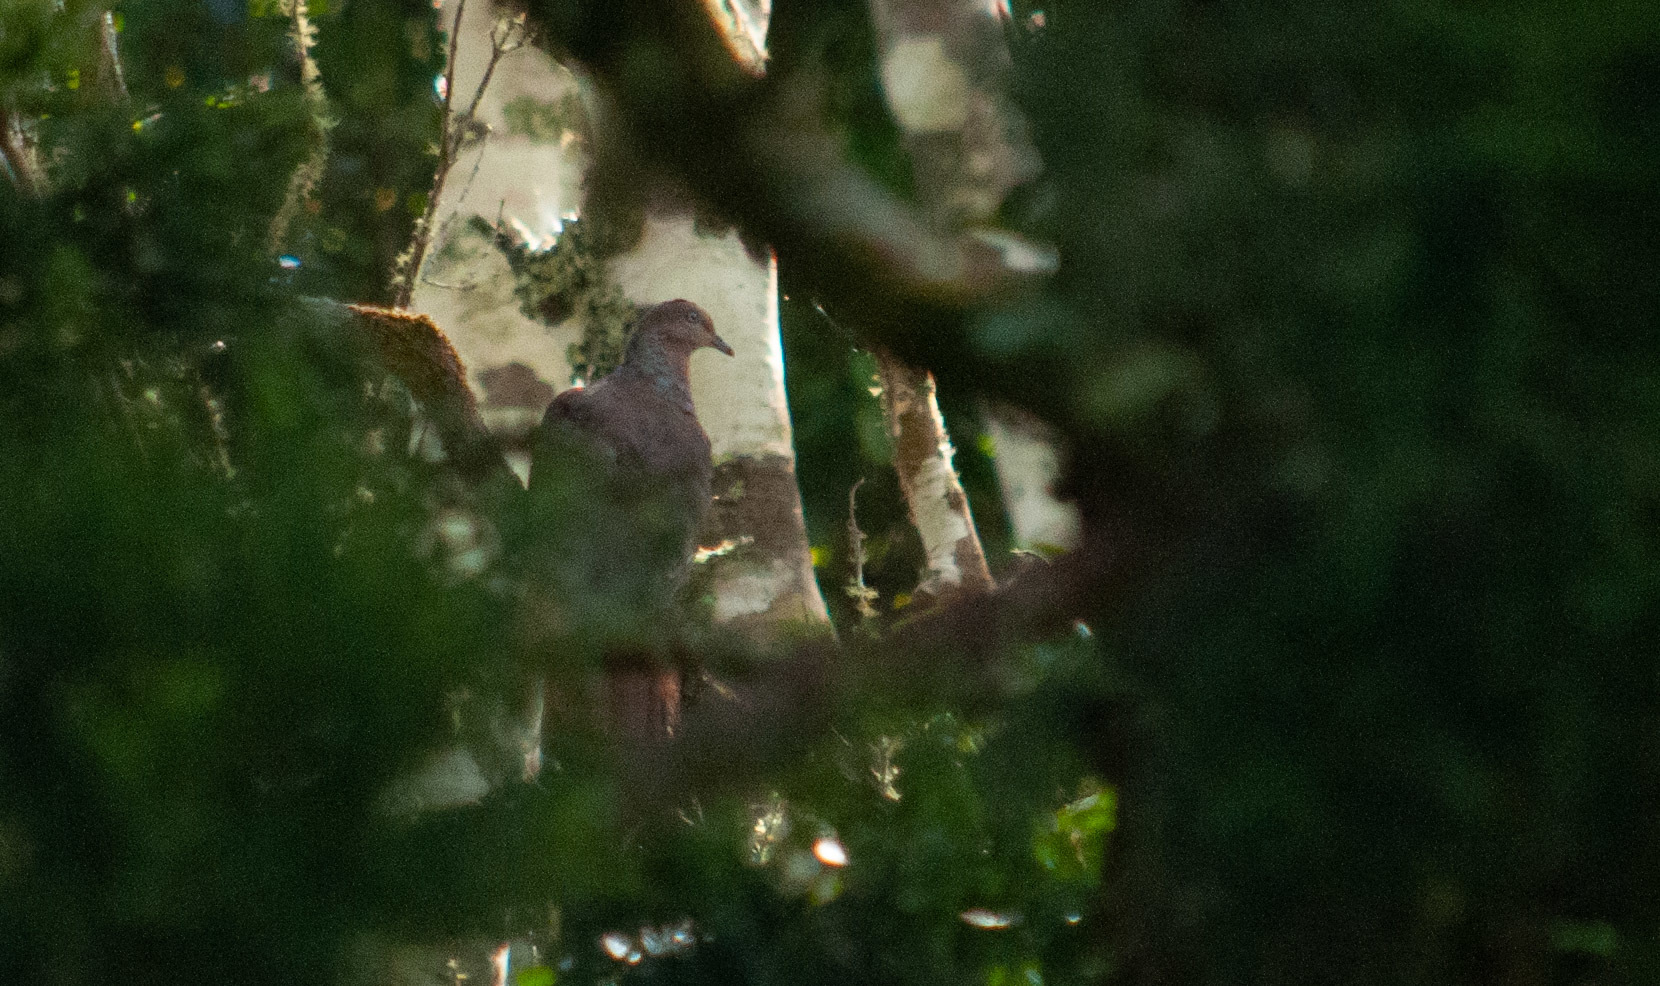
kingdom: Animalia
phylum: Chordata
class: Aves
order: Columbiformes
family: Columbidae
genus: Macropygia
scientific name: Macropygia phasianella
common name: Brown cuckoo-dove
